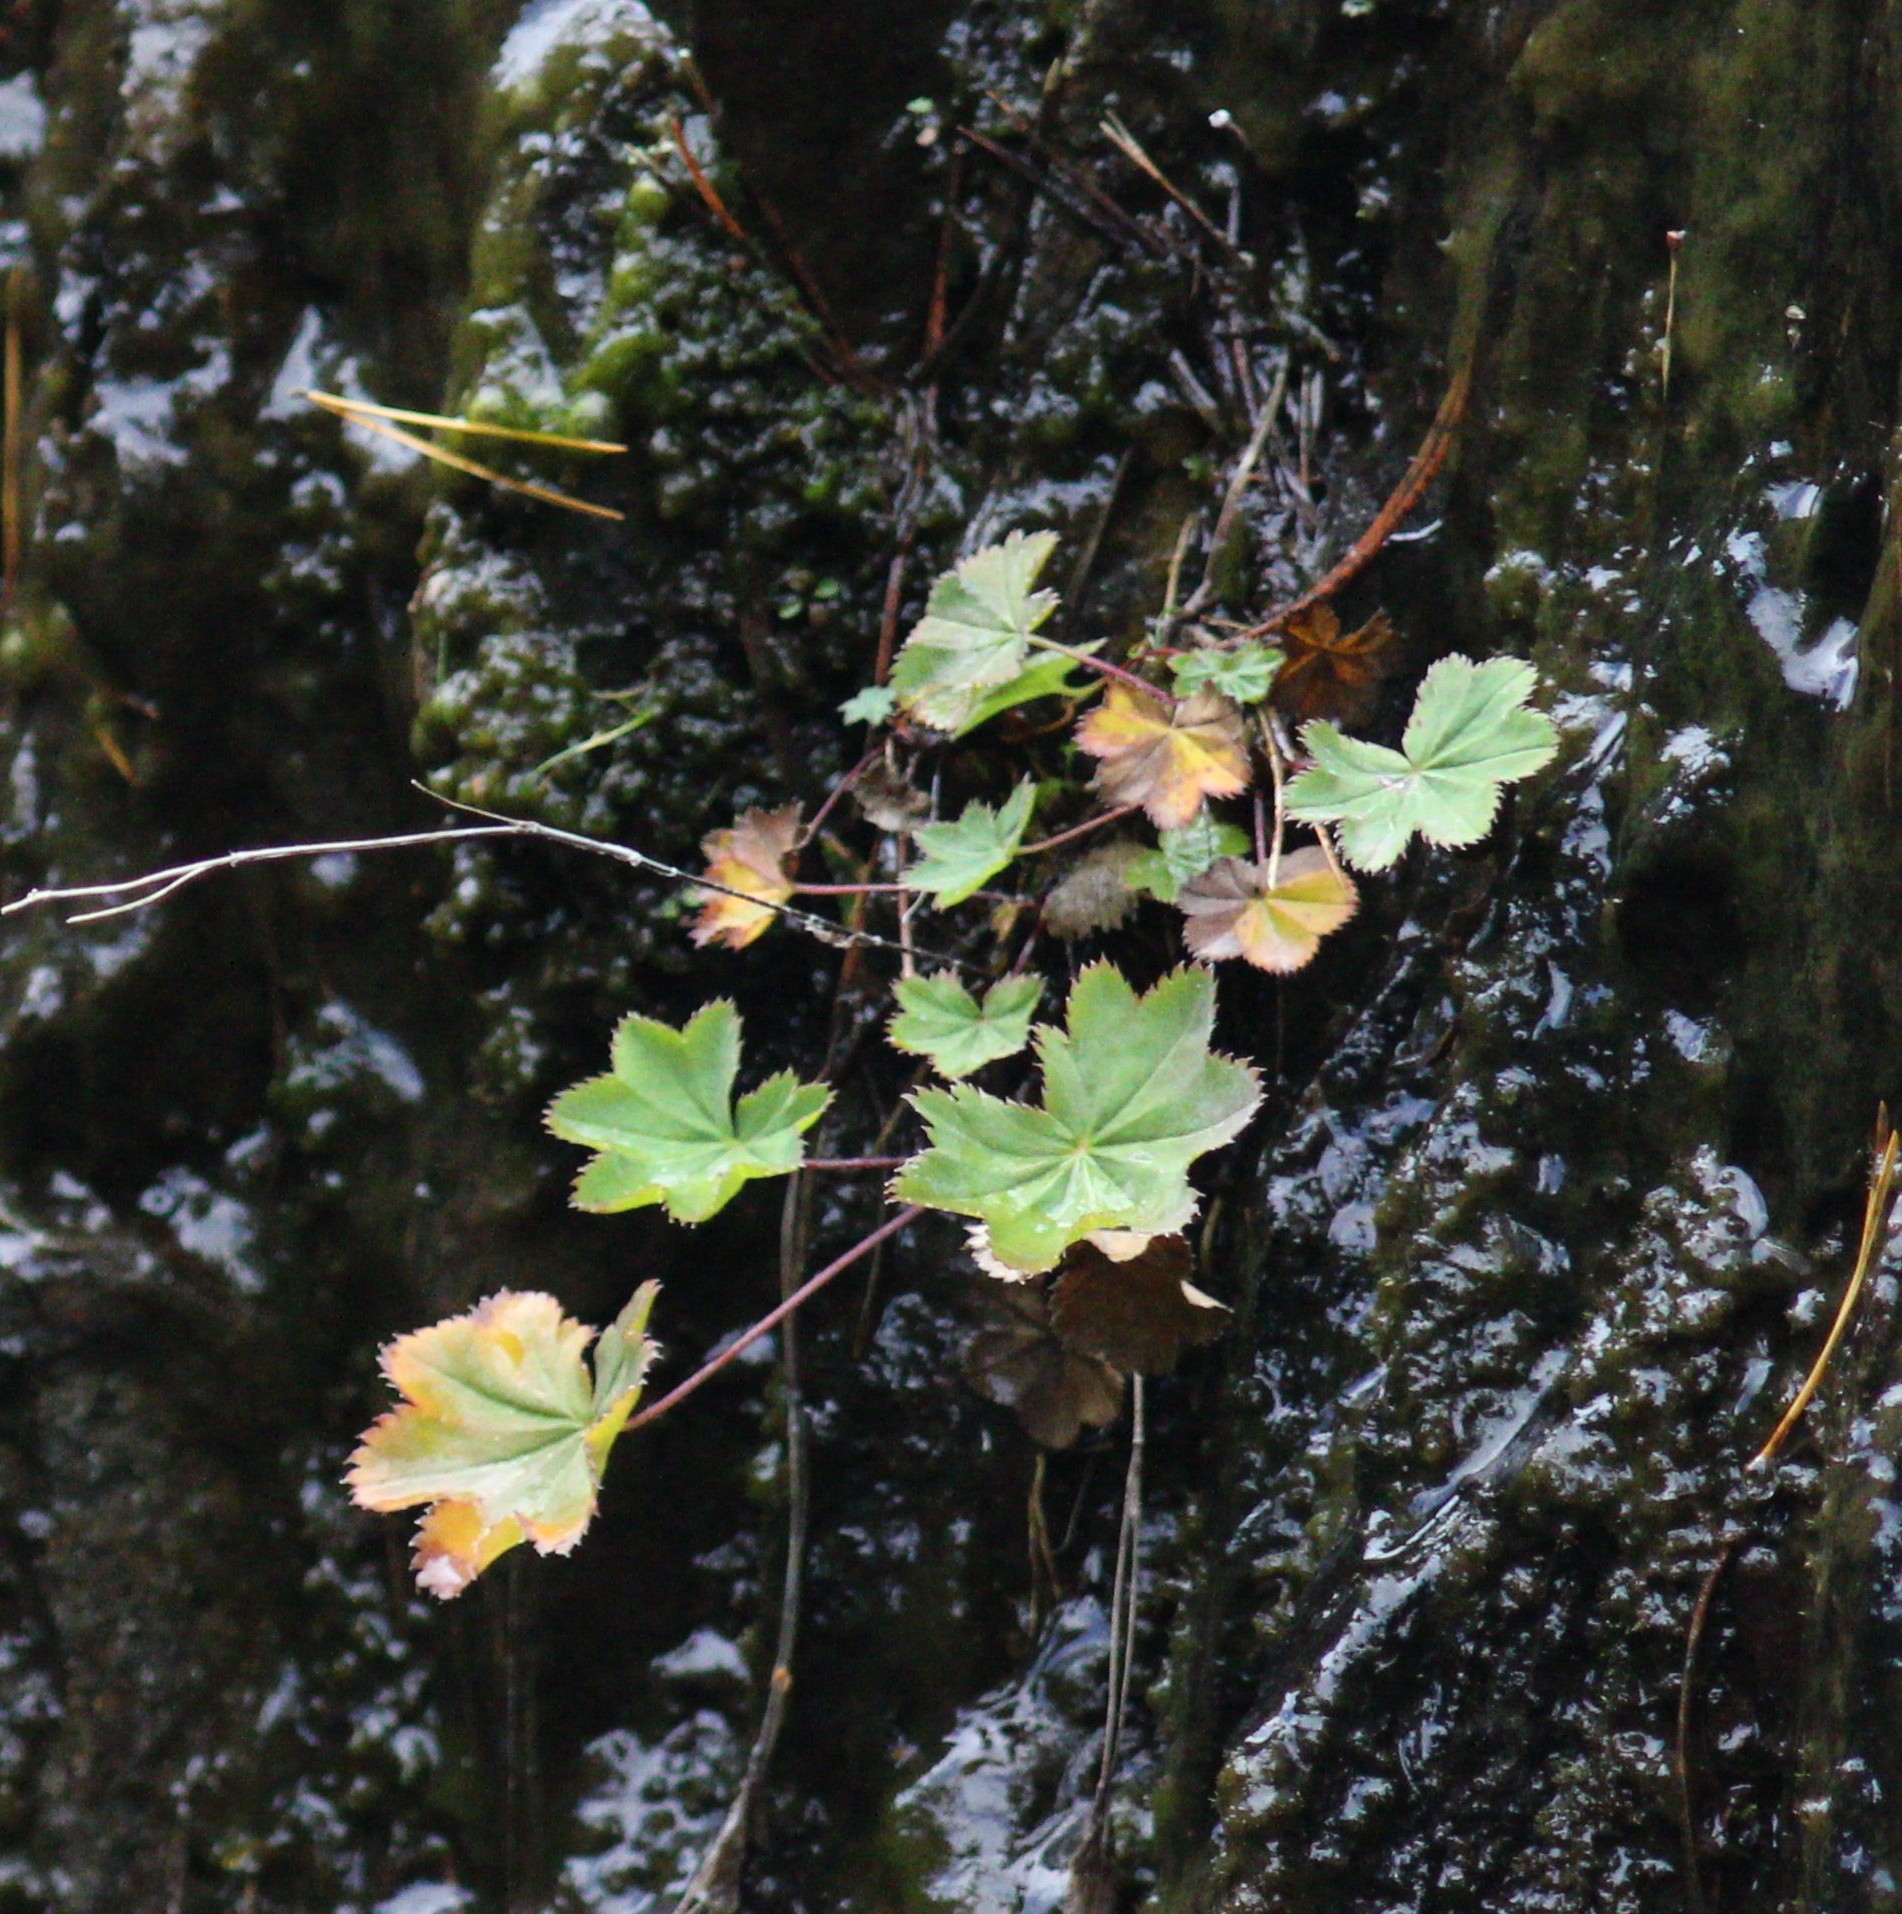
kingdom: Plantae
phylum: Tracheophyta
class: Magnoliopsida
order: Rosales
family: Rosaceae
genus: Alchemilla
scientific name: Alchemilla
